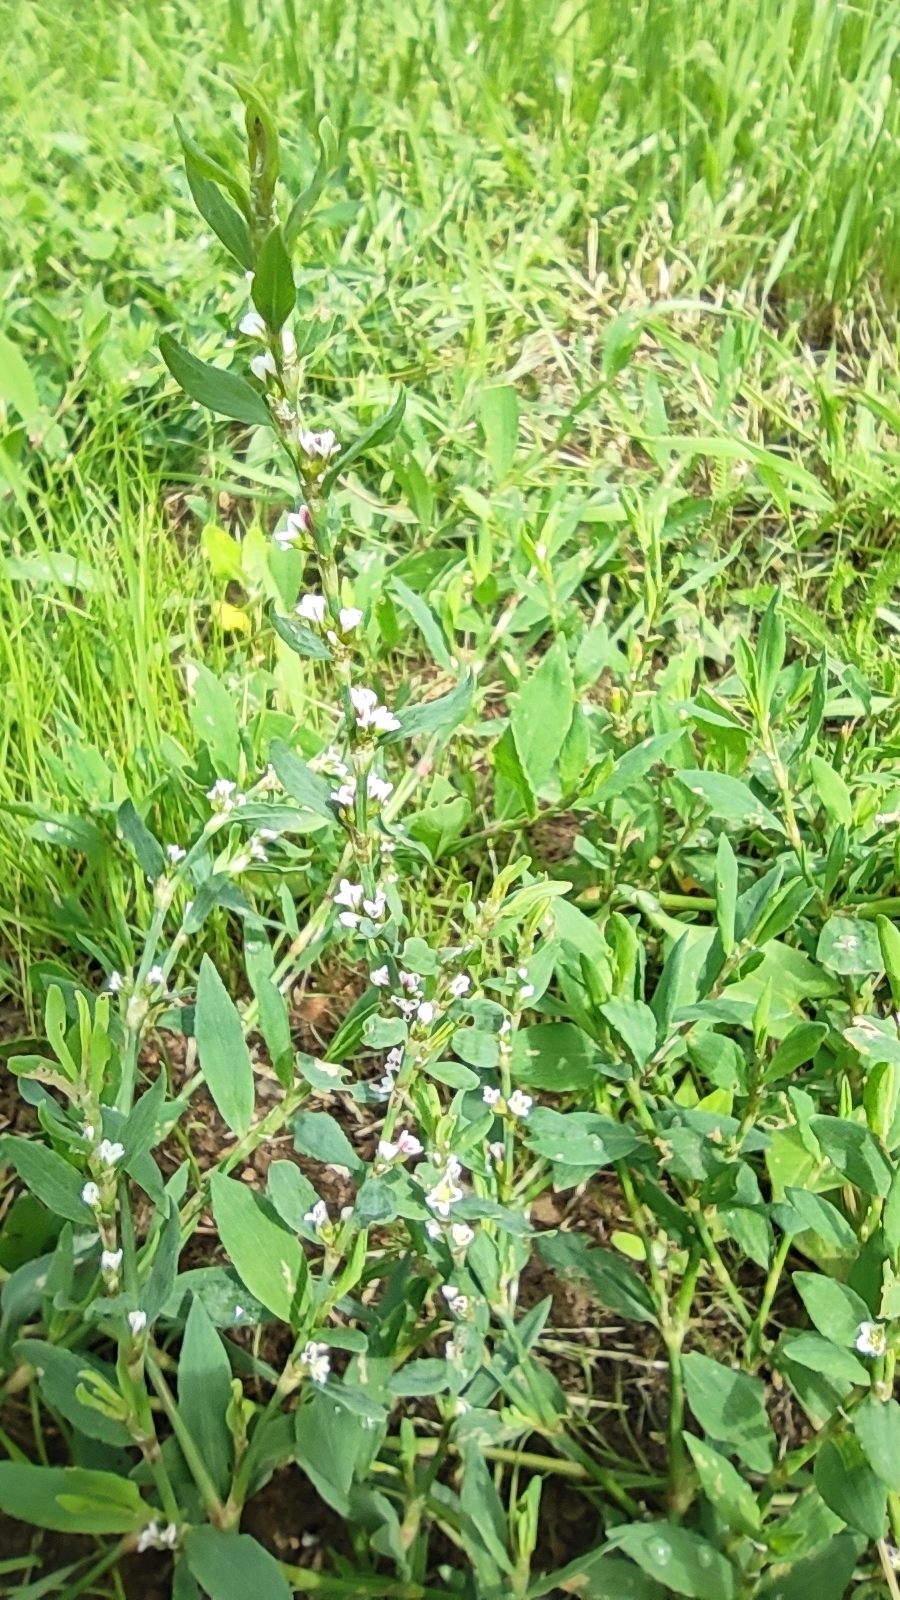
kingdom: Plantae
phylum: Tracheophyta
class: Magnoliopsida
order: Caryophyllales
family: Polygonaceae
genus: Polygonum
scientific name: Polygonum
